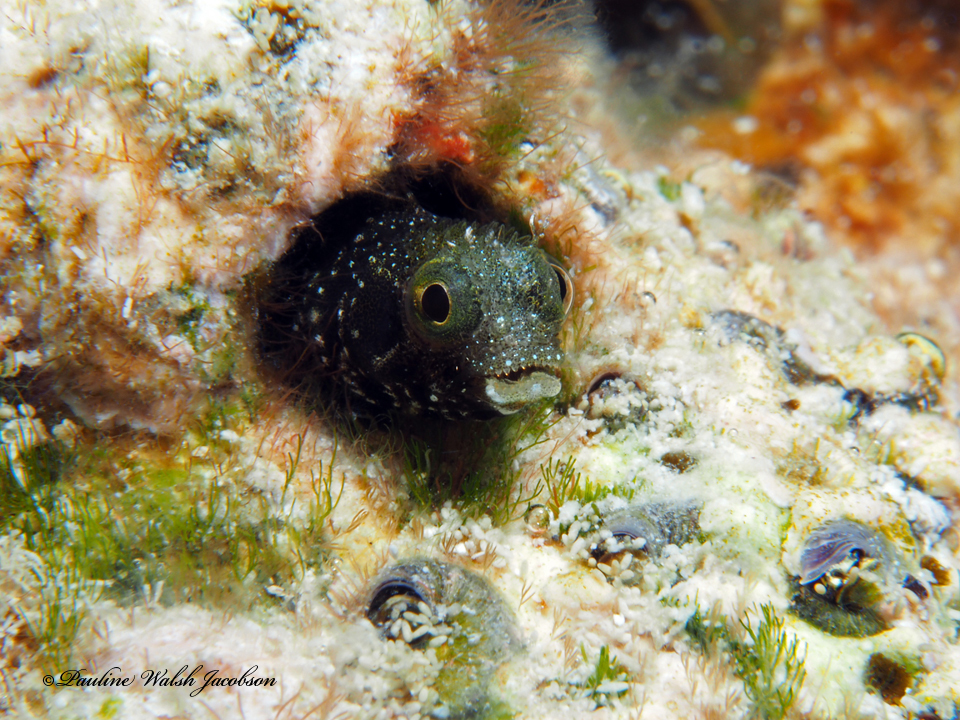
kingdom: Animalia
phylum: Chordata
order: Perciformes
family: Chaenopsidae
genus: Acanthemblemaria
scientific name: Acanthemblemaria spinosa
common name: Spinyhead blenny
